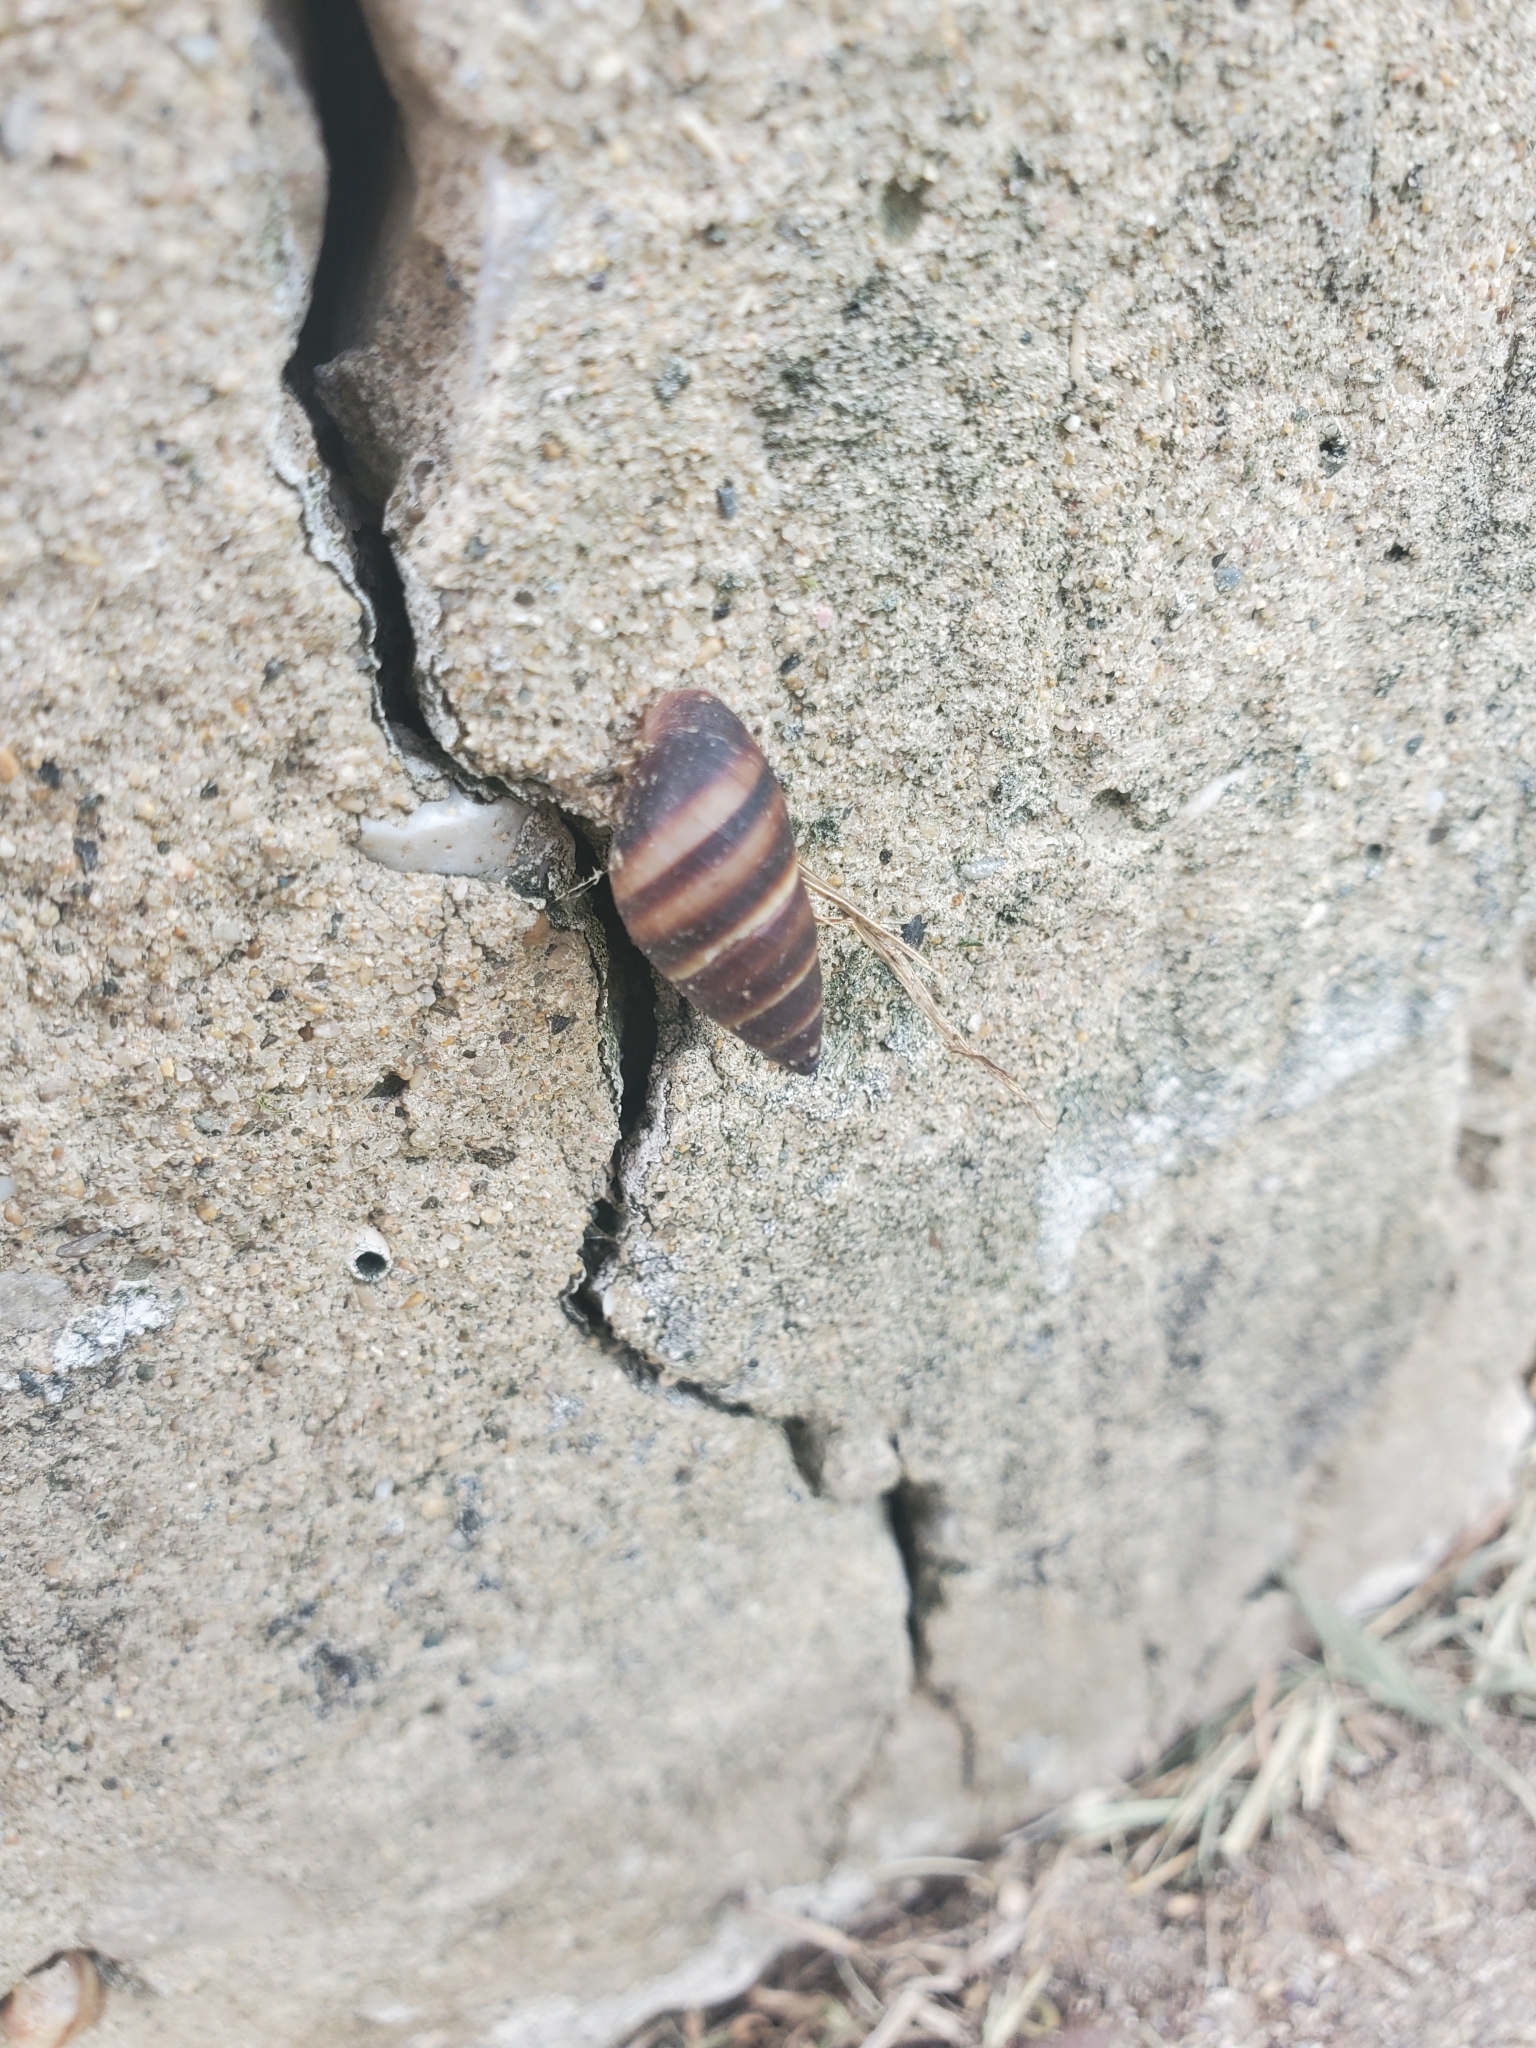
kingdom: Animalia
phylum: Mollusca
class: Gastropoda
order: Stylommatophora
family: Bulimulidae
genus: Bulimulus
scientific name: Bulimulus guadalupensis
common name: West indian bulimulus
